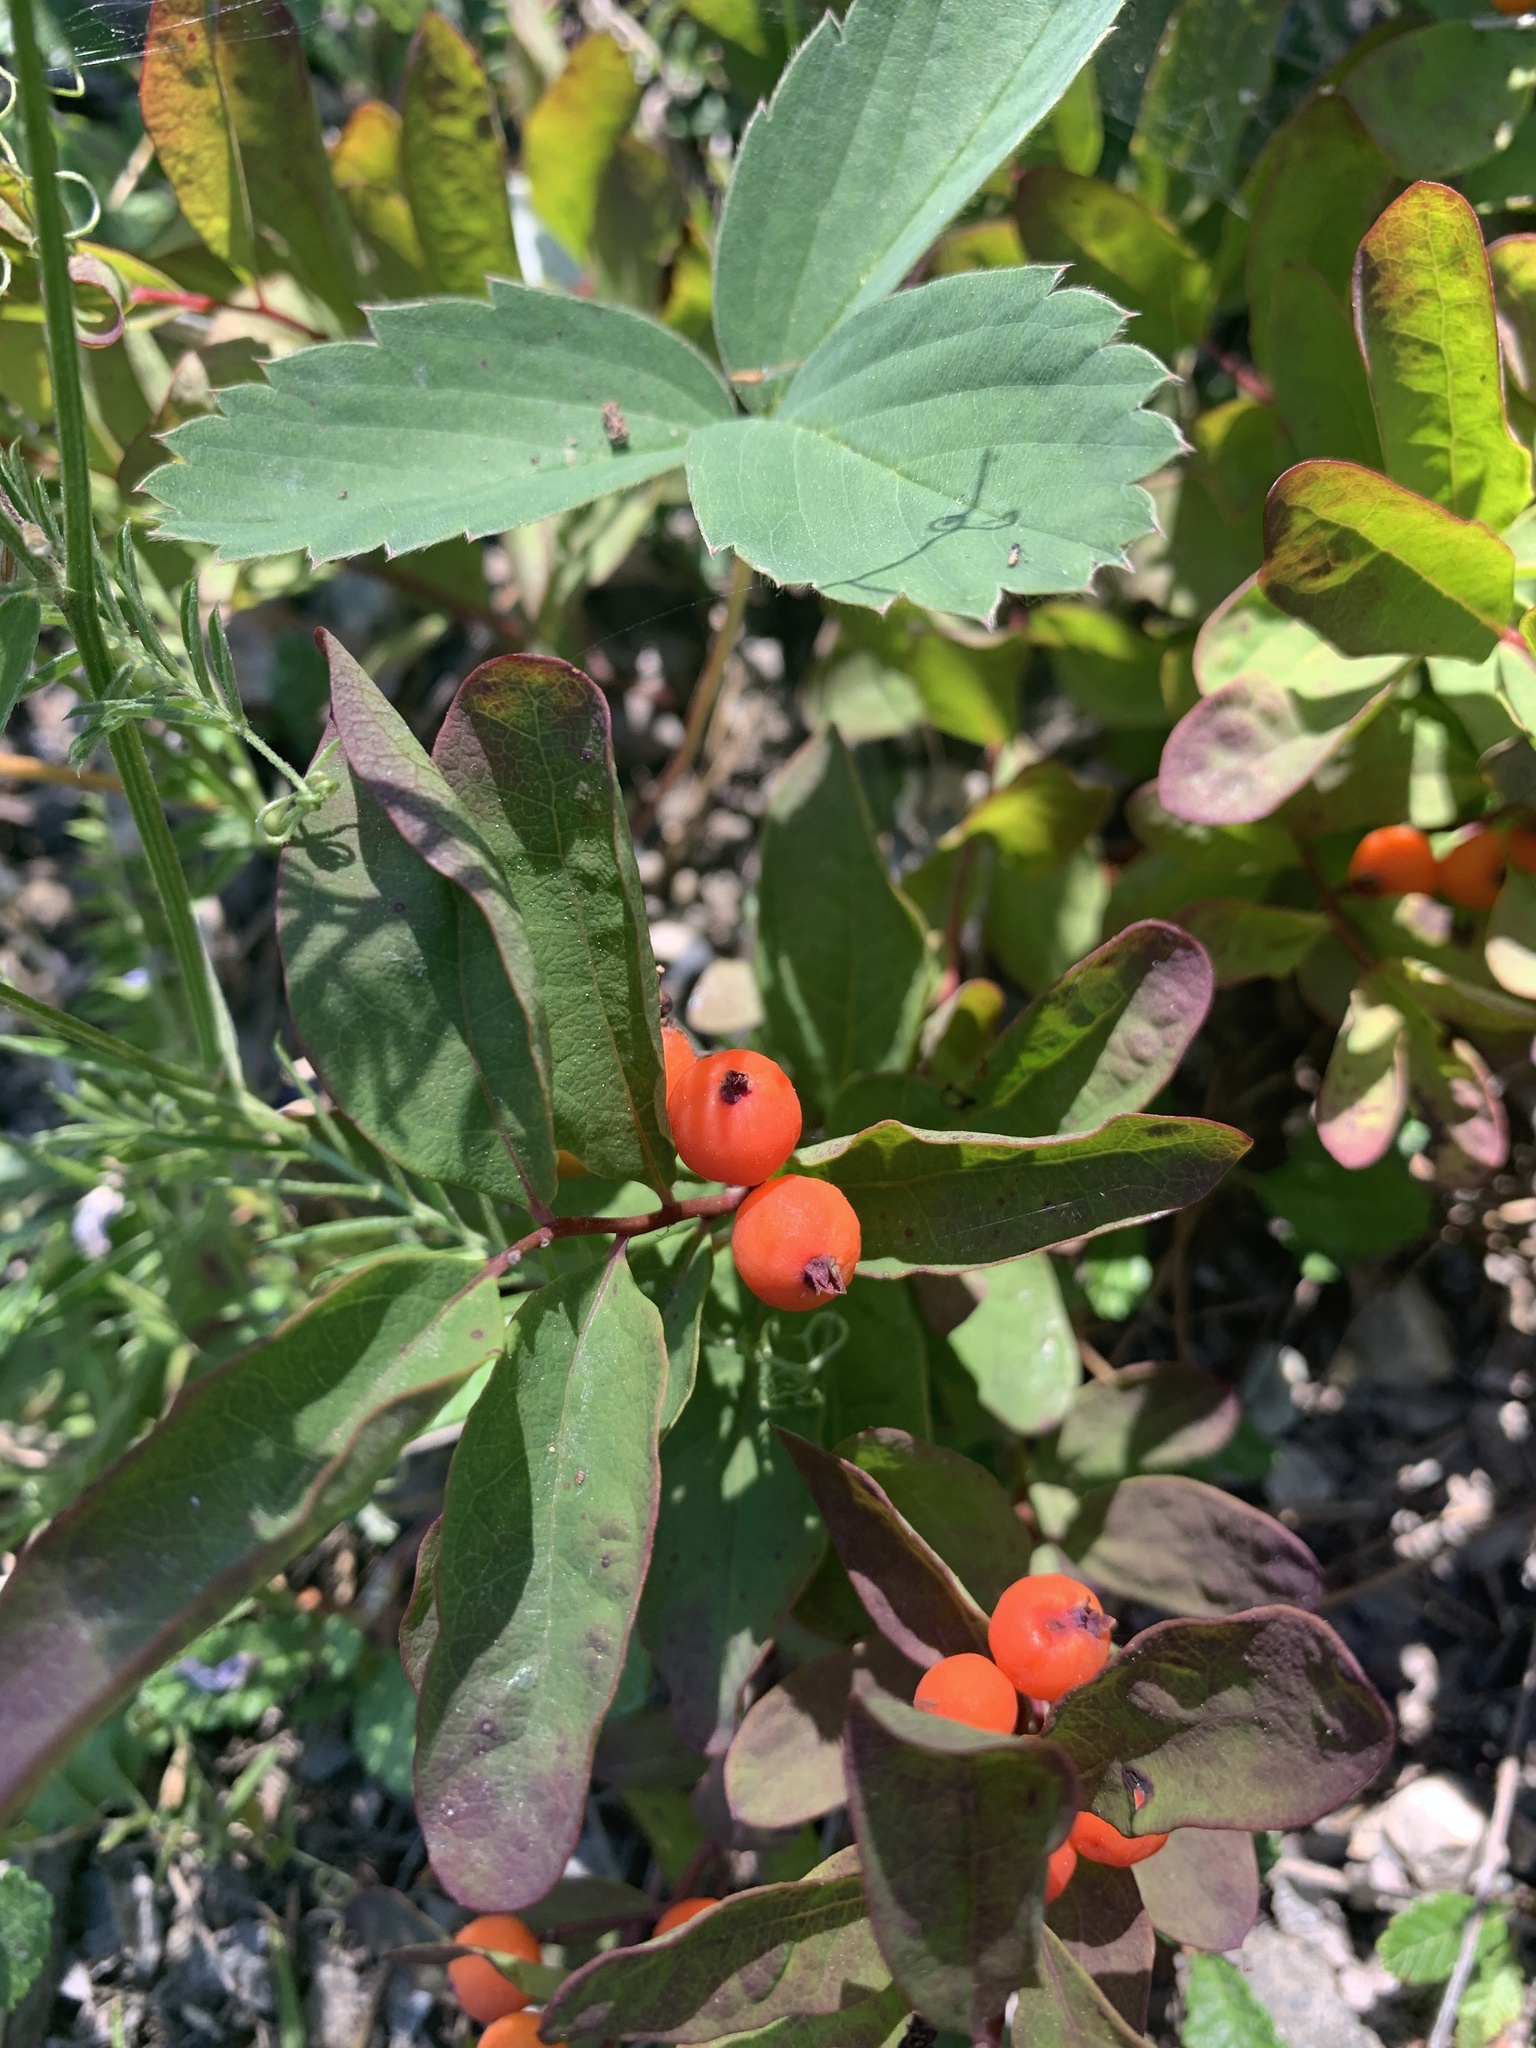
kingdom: Plantae
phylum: Tracheophyta
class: Magnoliopsida
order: Santalales
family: Comandraceae
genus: Geocaulon
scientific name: Geocaulon lividum
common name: Earthberry
